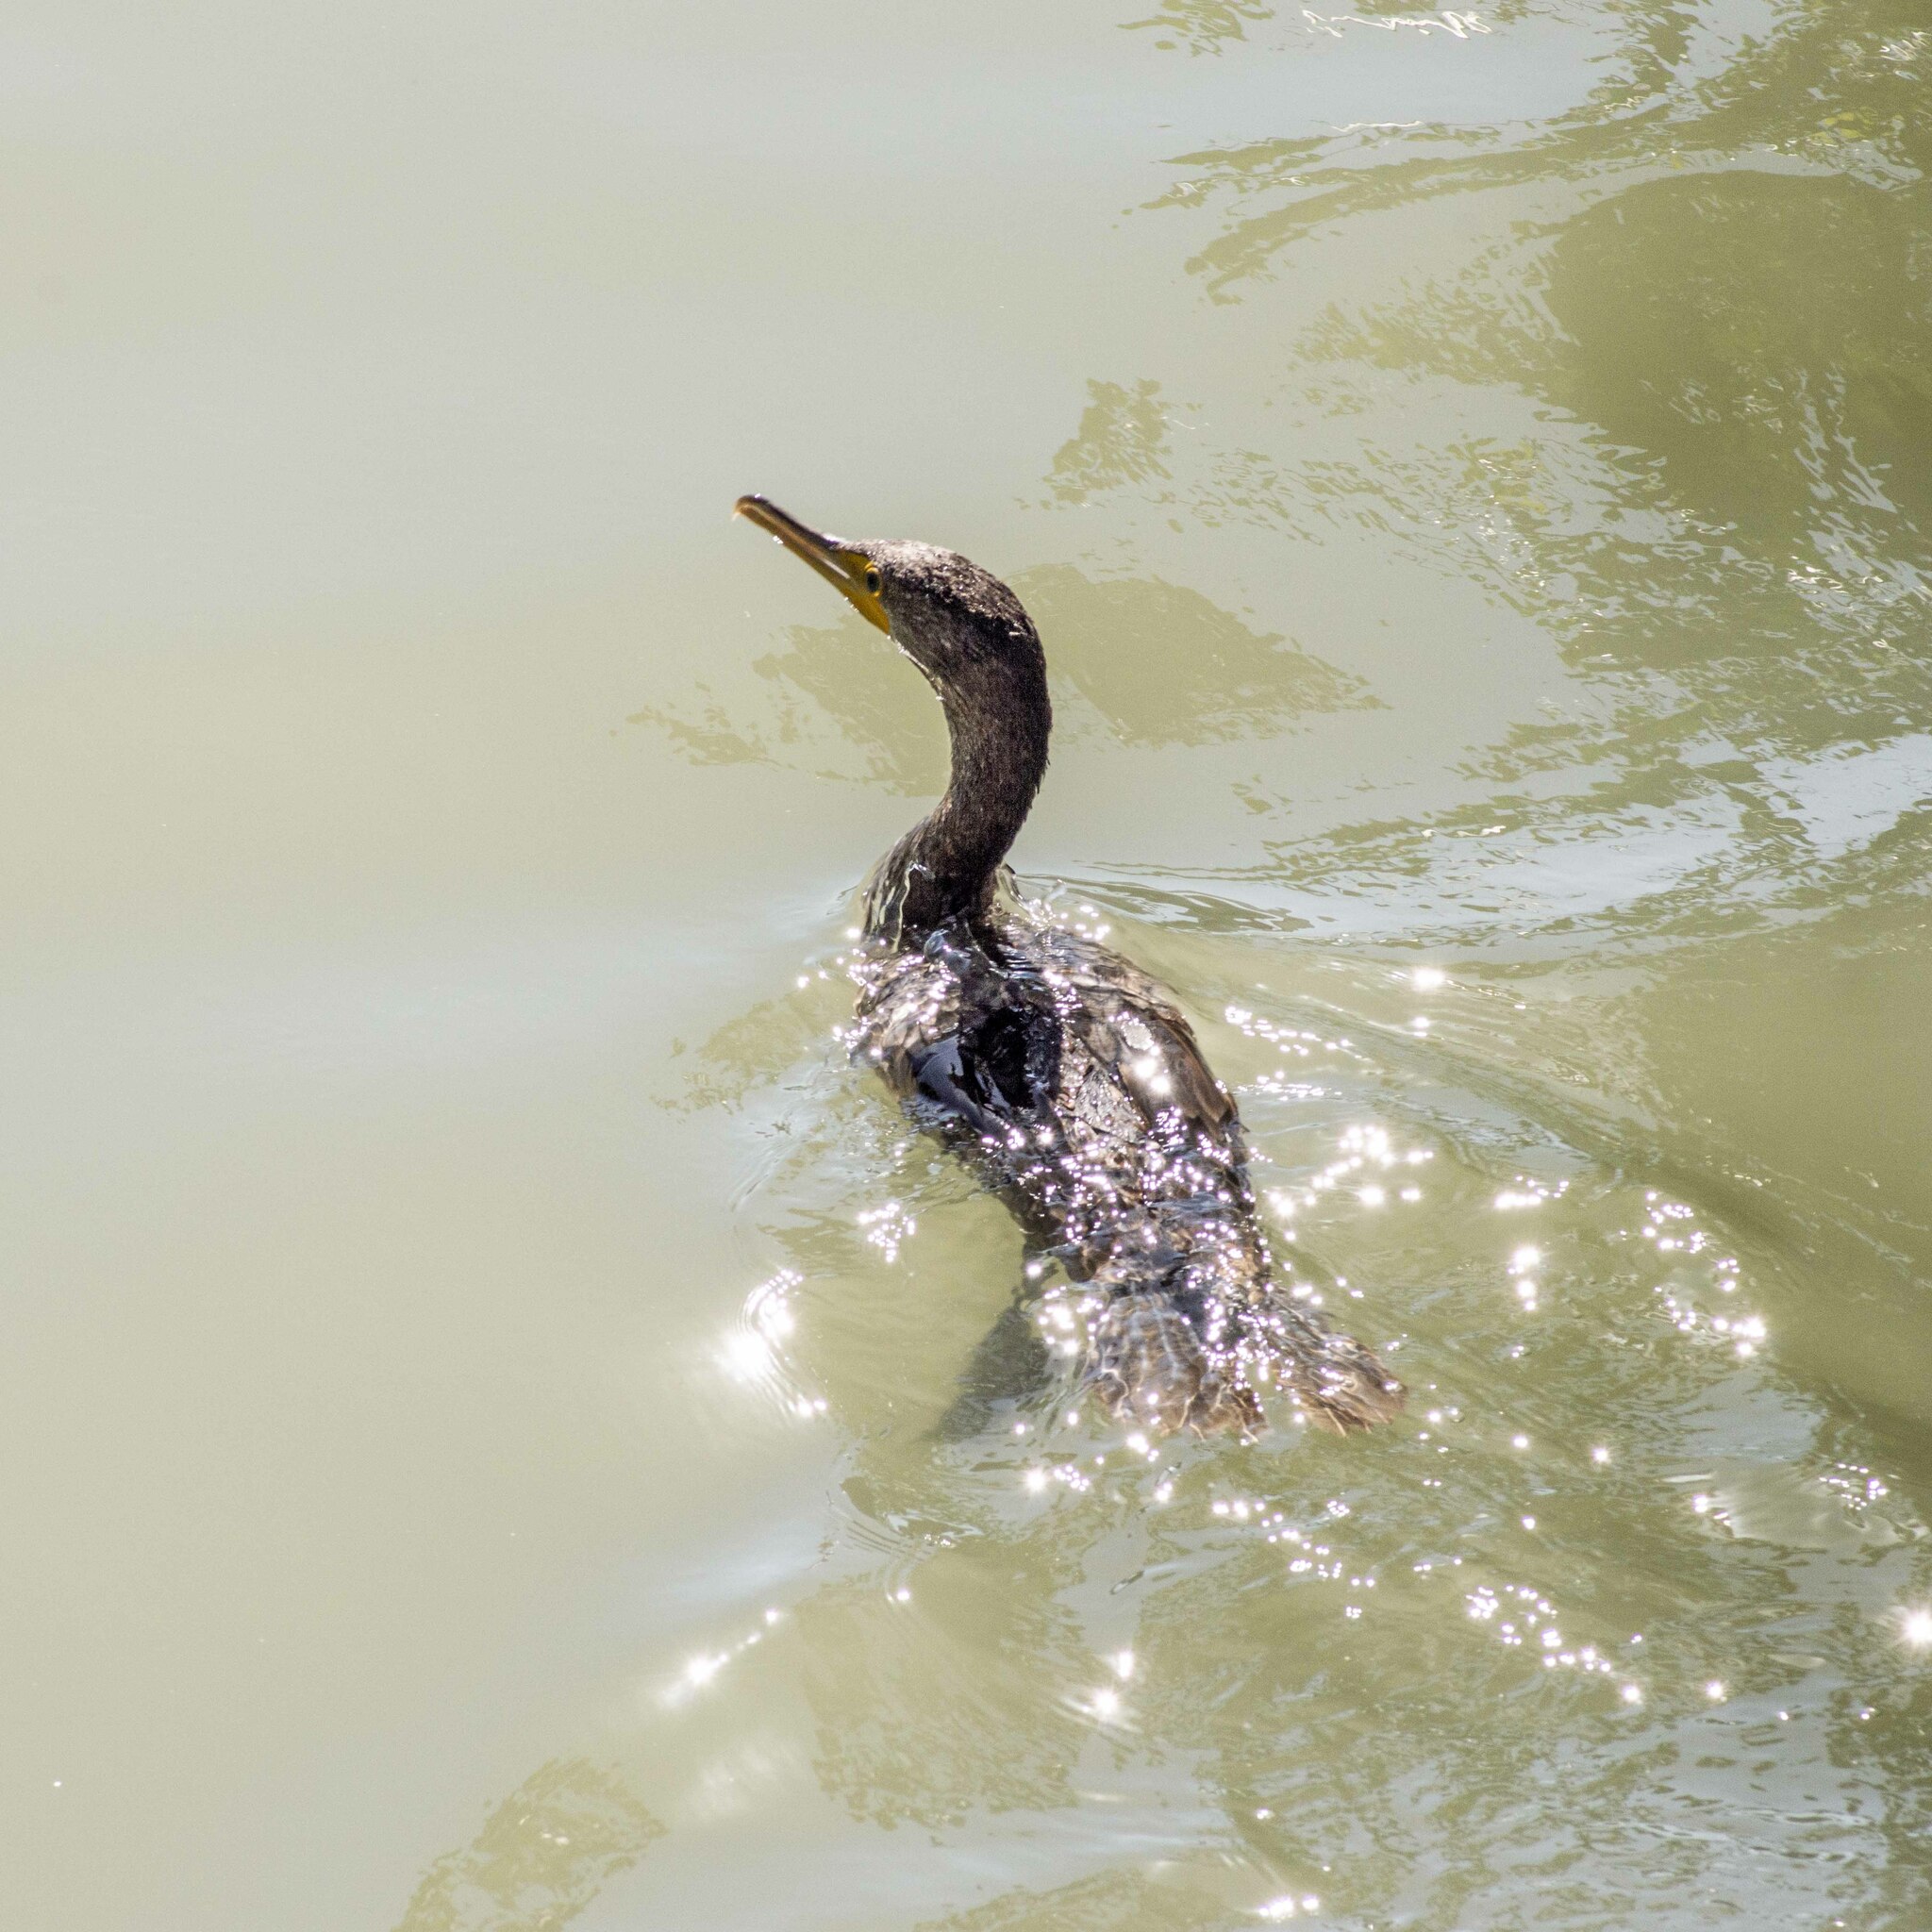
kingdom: Animalia
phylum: Chordata
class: Aves
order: Suliformes
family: Phalacrocoracidae
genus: Phalacrocorax
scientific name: Phalacrocorax brasilianus
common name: Neotropic cormorant
